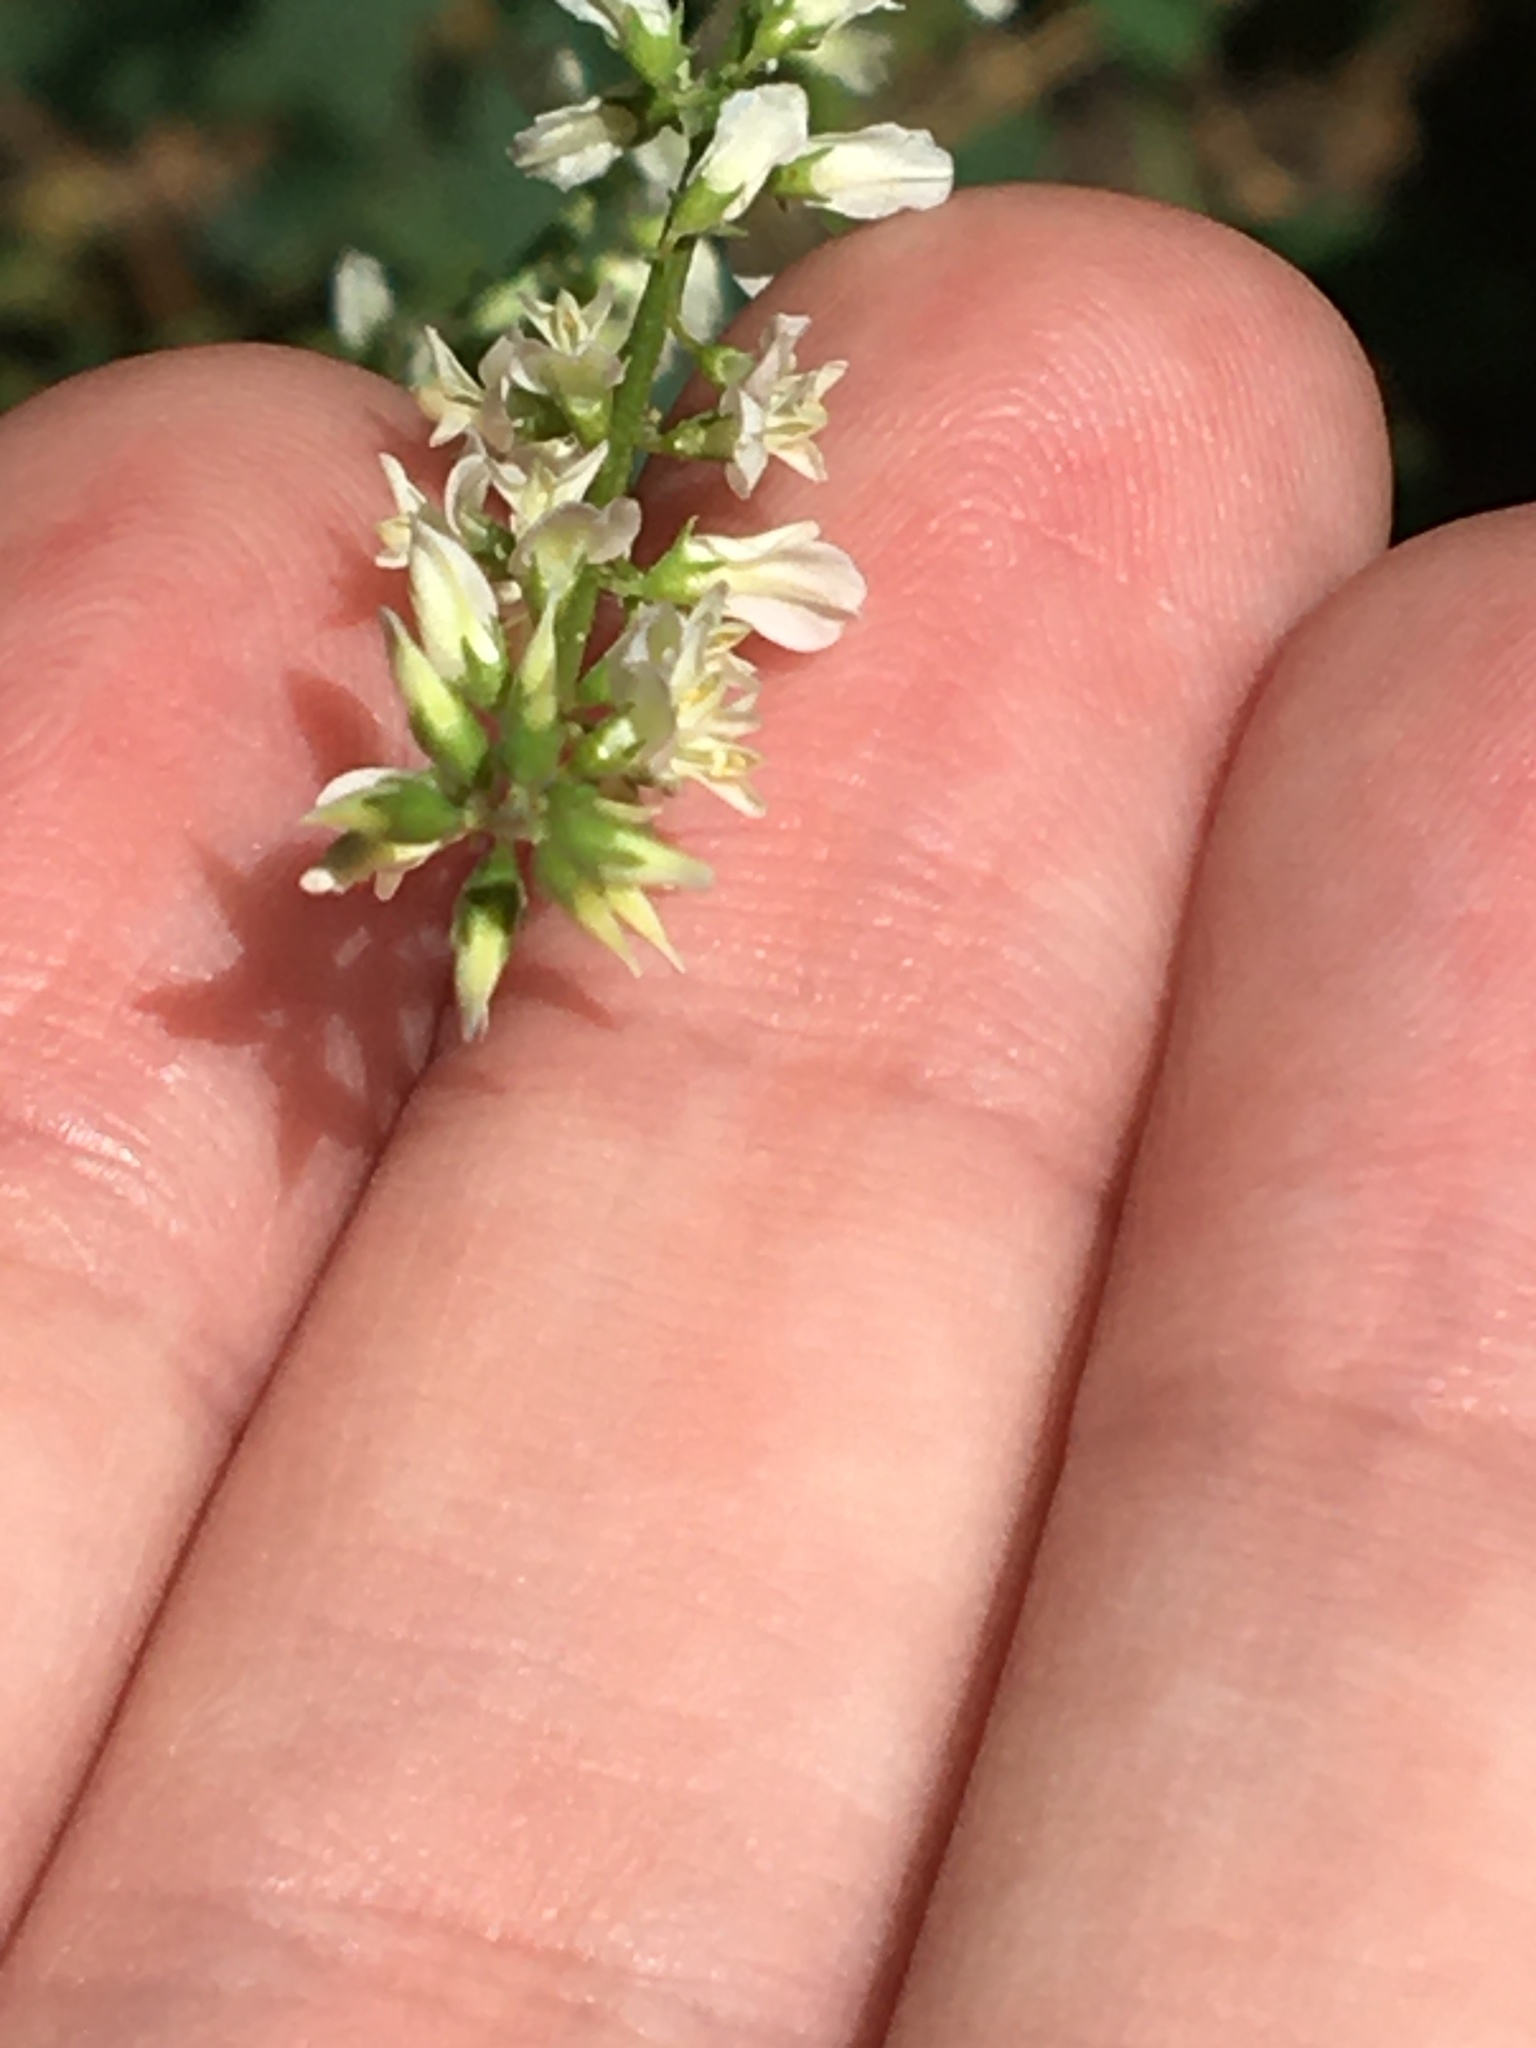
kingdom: Plantae
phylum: Tracheophyta
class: Magnoliopsida
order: Fabales
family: Fabaceae
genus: Melilotus
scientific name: Melilotus albus
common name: White melilot
